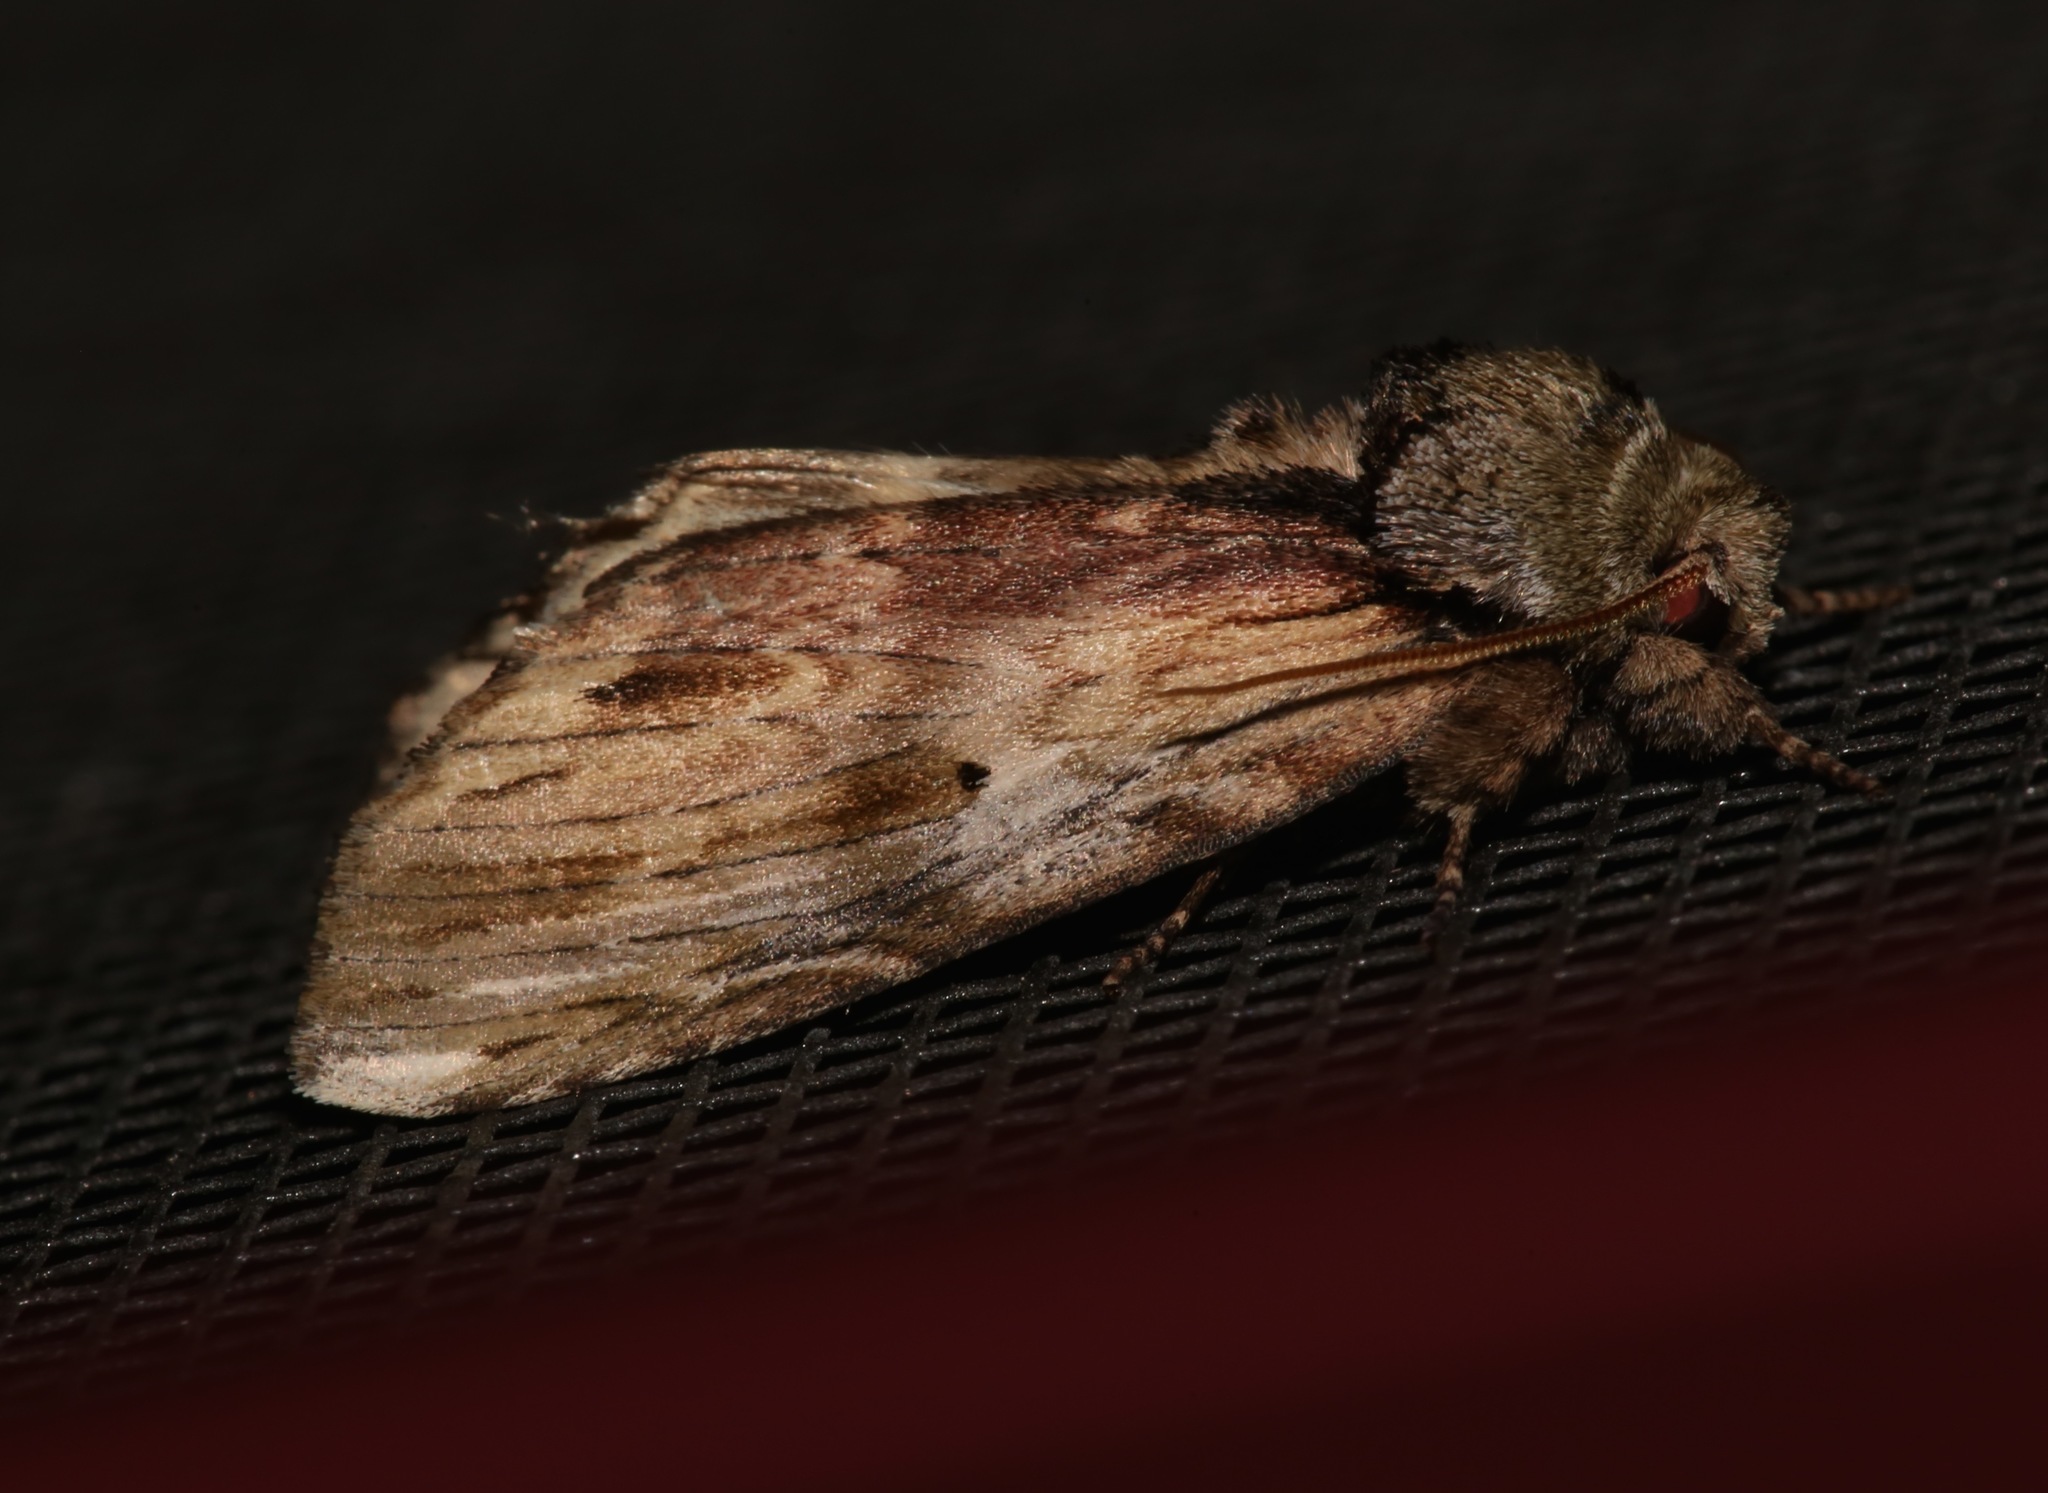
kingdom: Animalia
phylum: Arthropoda
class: Insecta
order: Lepidoptera
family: Notodontidae
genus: Schizura
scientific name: Schizura
